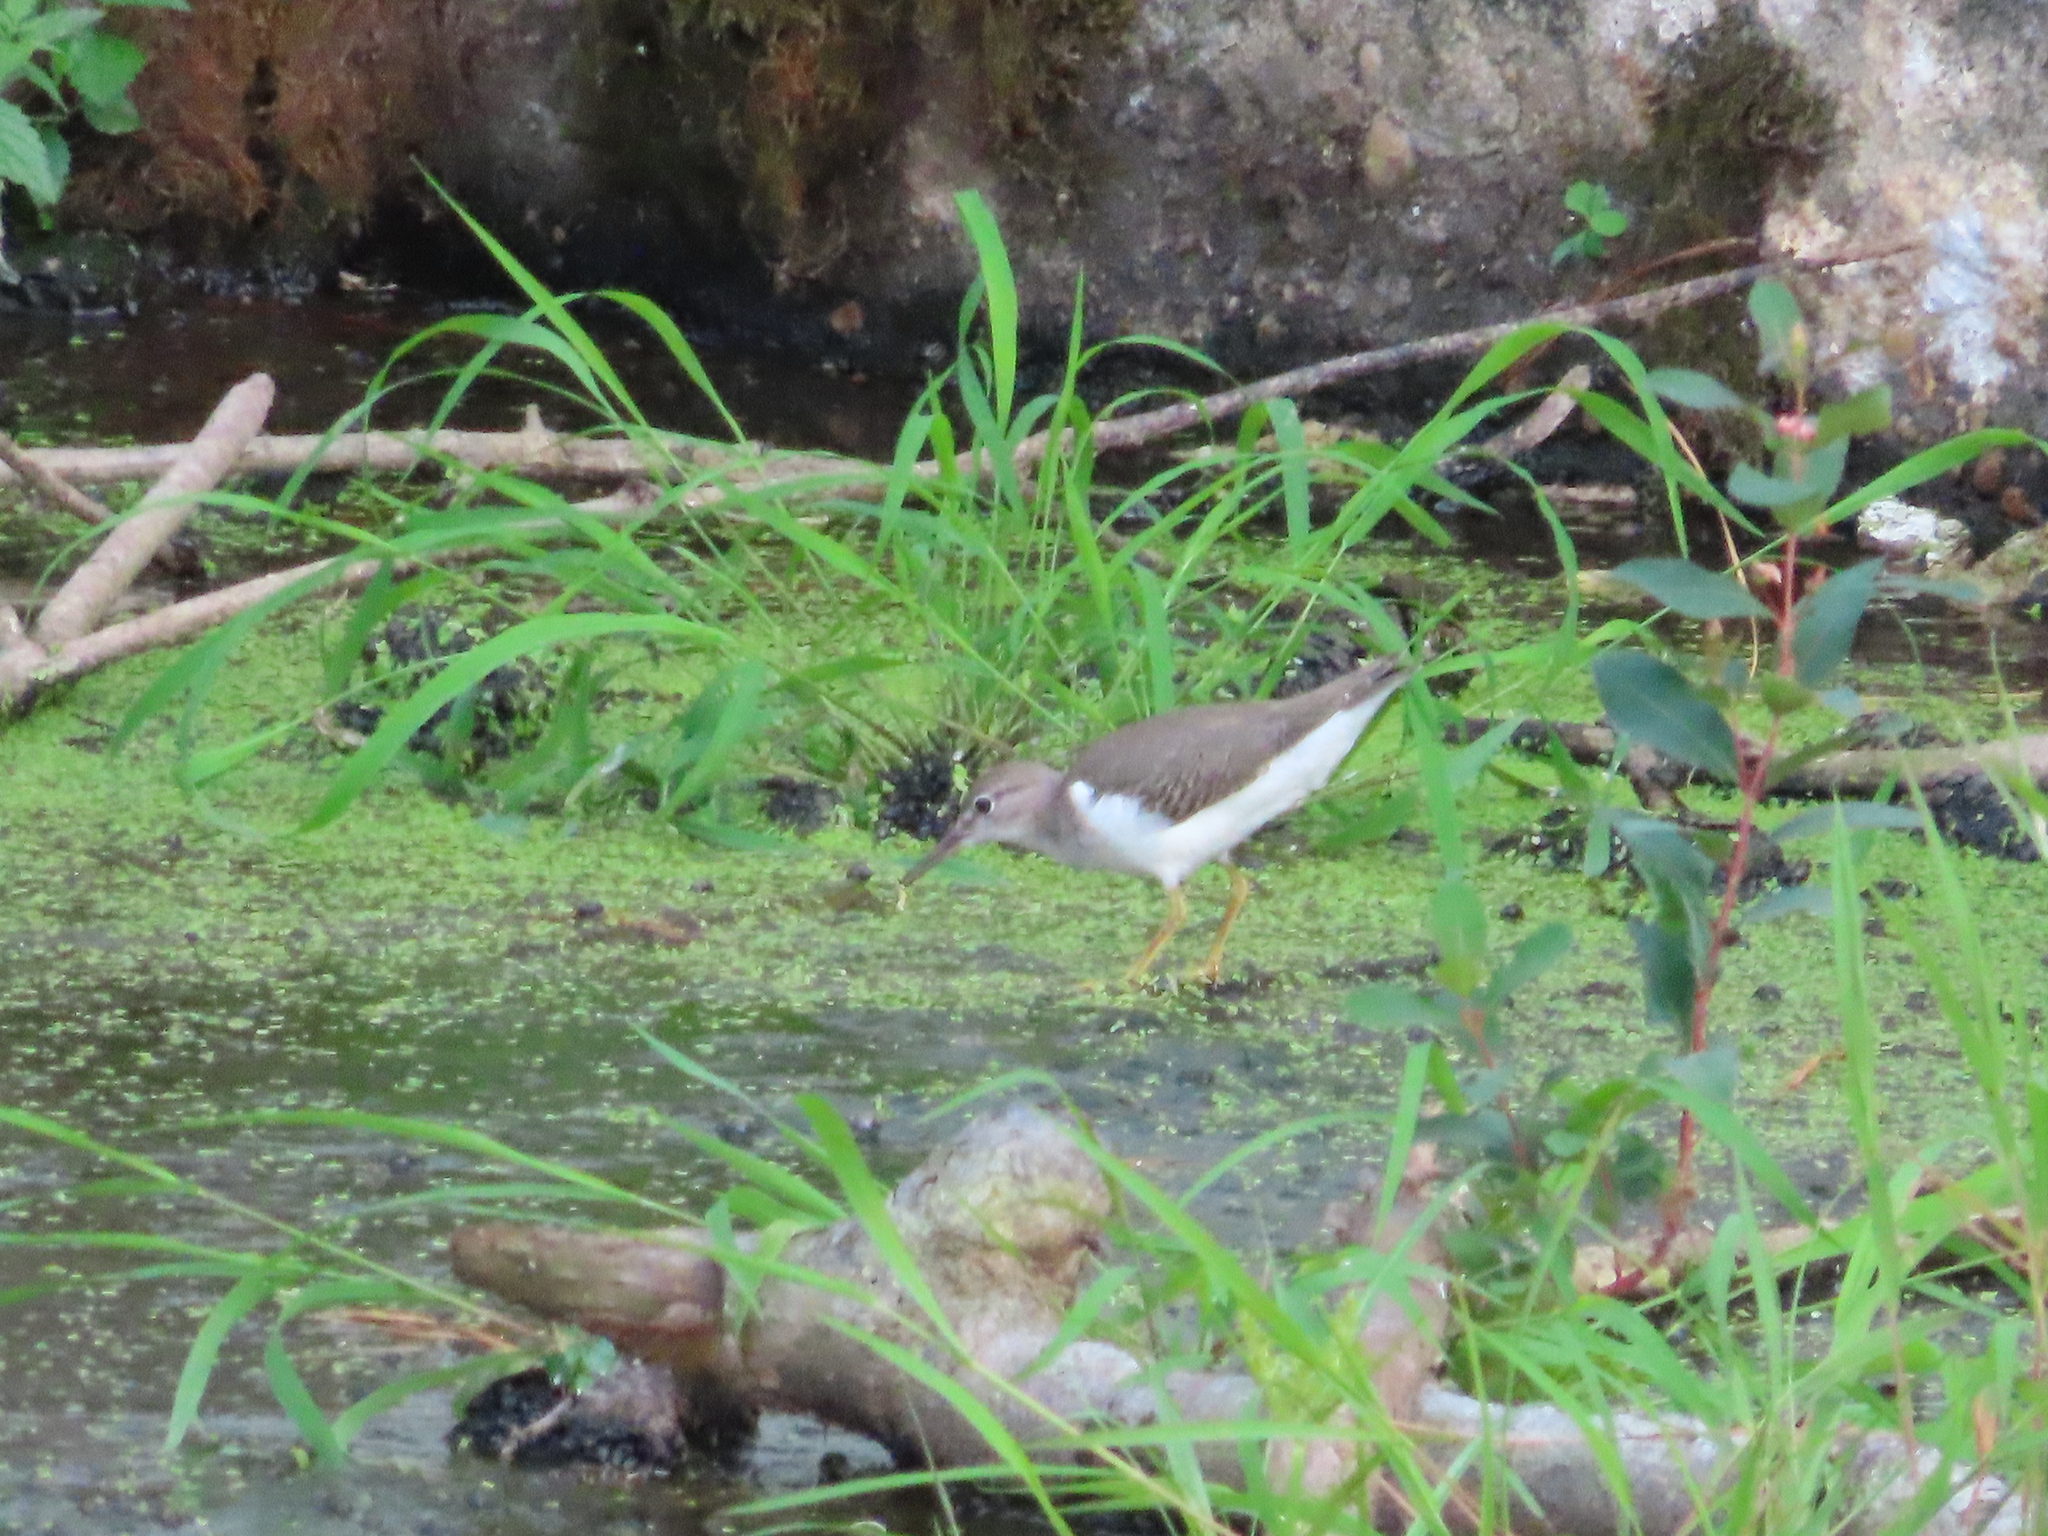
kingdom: Animalia
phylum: Chordata
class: Aves
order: Charadriiformes
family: Scolopacidae
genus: Actitis
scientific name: Actitis macularius
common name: Spotted sandpiper
